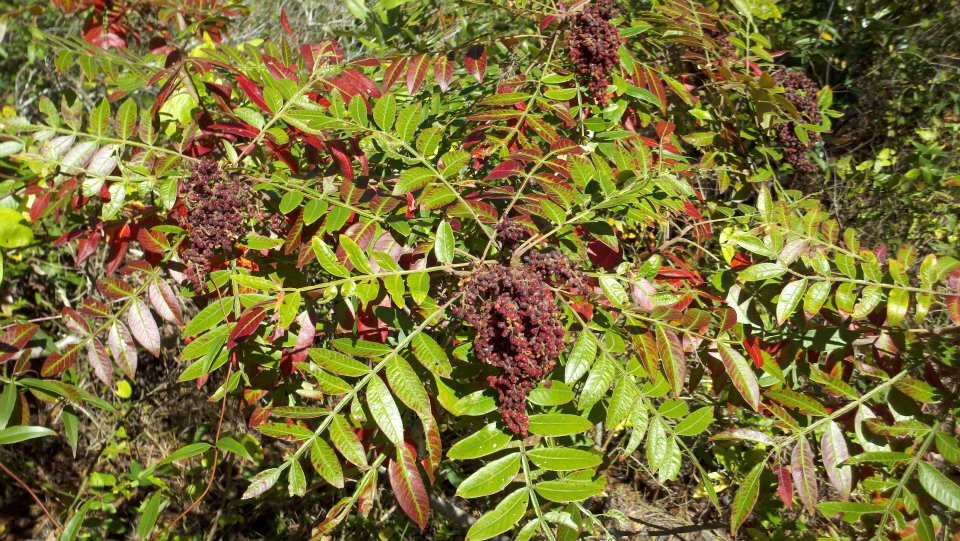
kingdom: Plantae
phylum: Tracheophyta
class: Magnoliopsida
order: Sapindales
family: Anacardiaceae
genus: Rhus
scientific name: Rhus copallina
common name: Shining sumac
